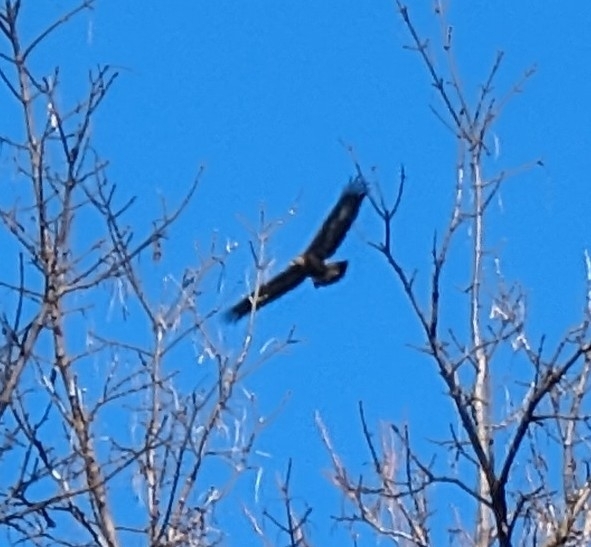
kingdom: Animalia
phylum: Chordata
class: Aves
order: Accipitriformes
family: Accipitridae
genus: Aquila
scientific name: Aquila chrysaetos
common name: Golden eagle
